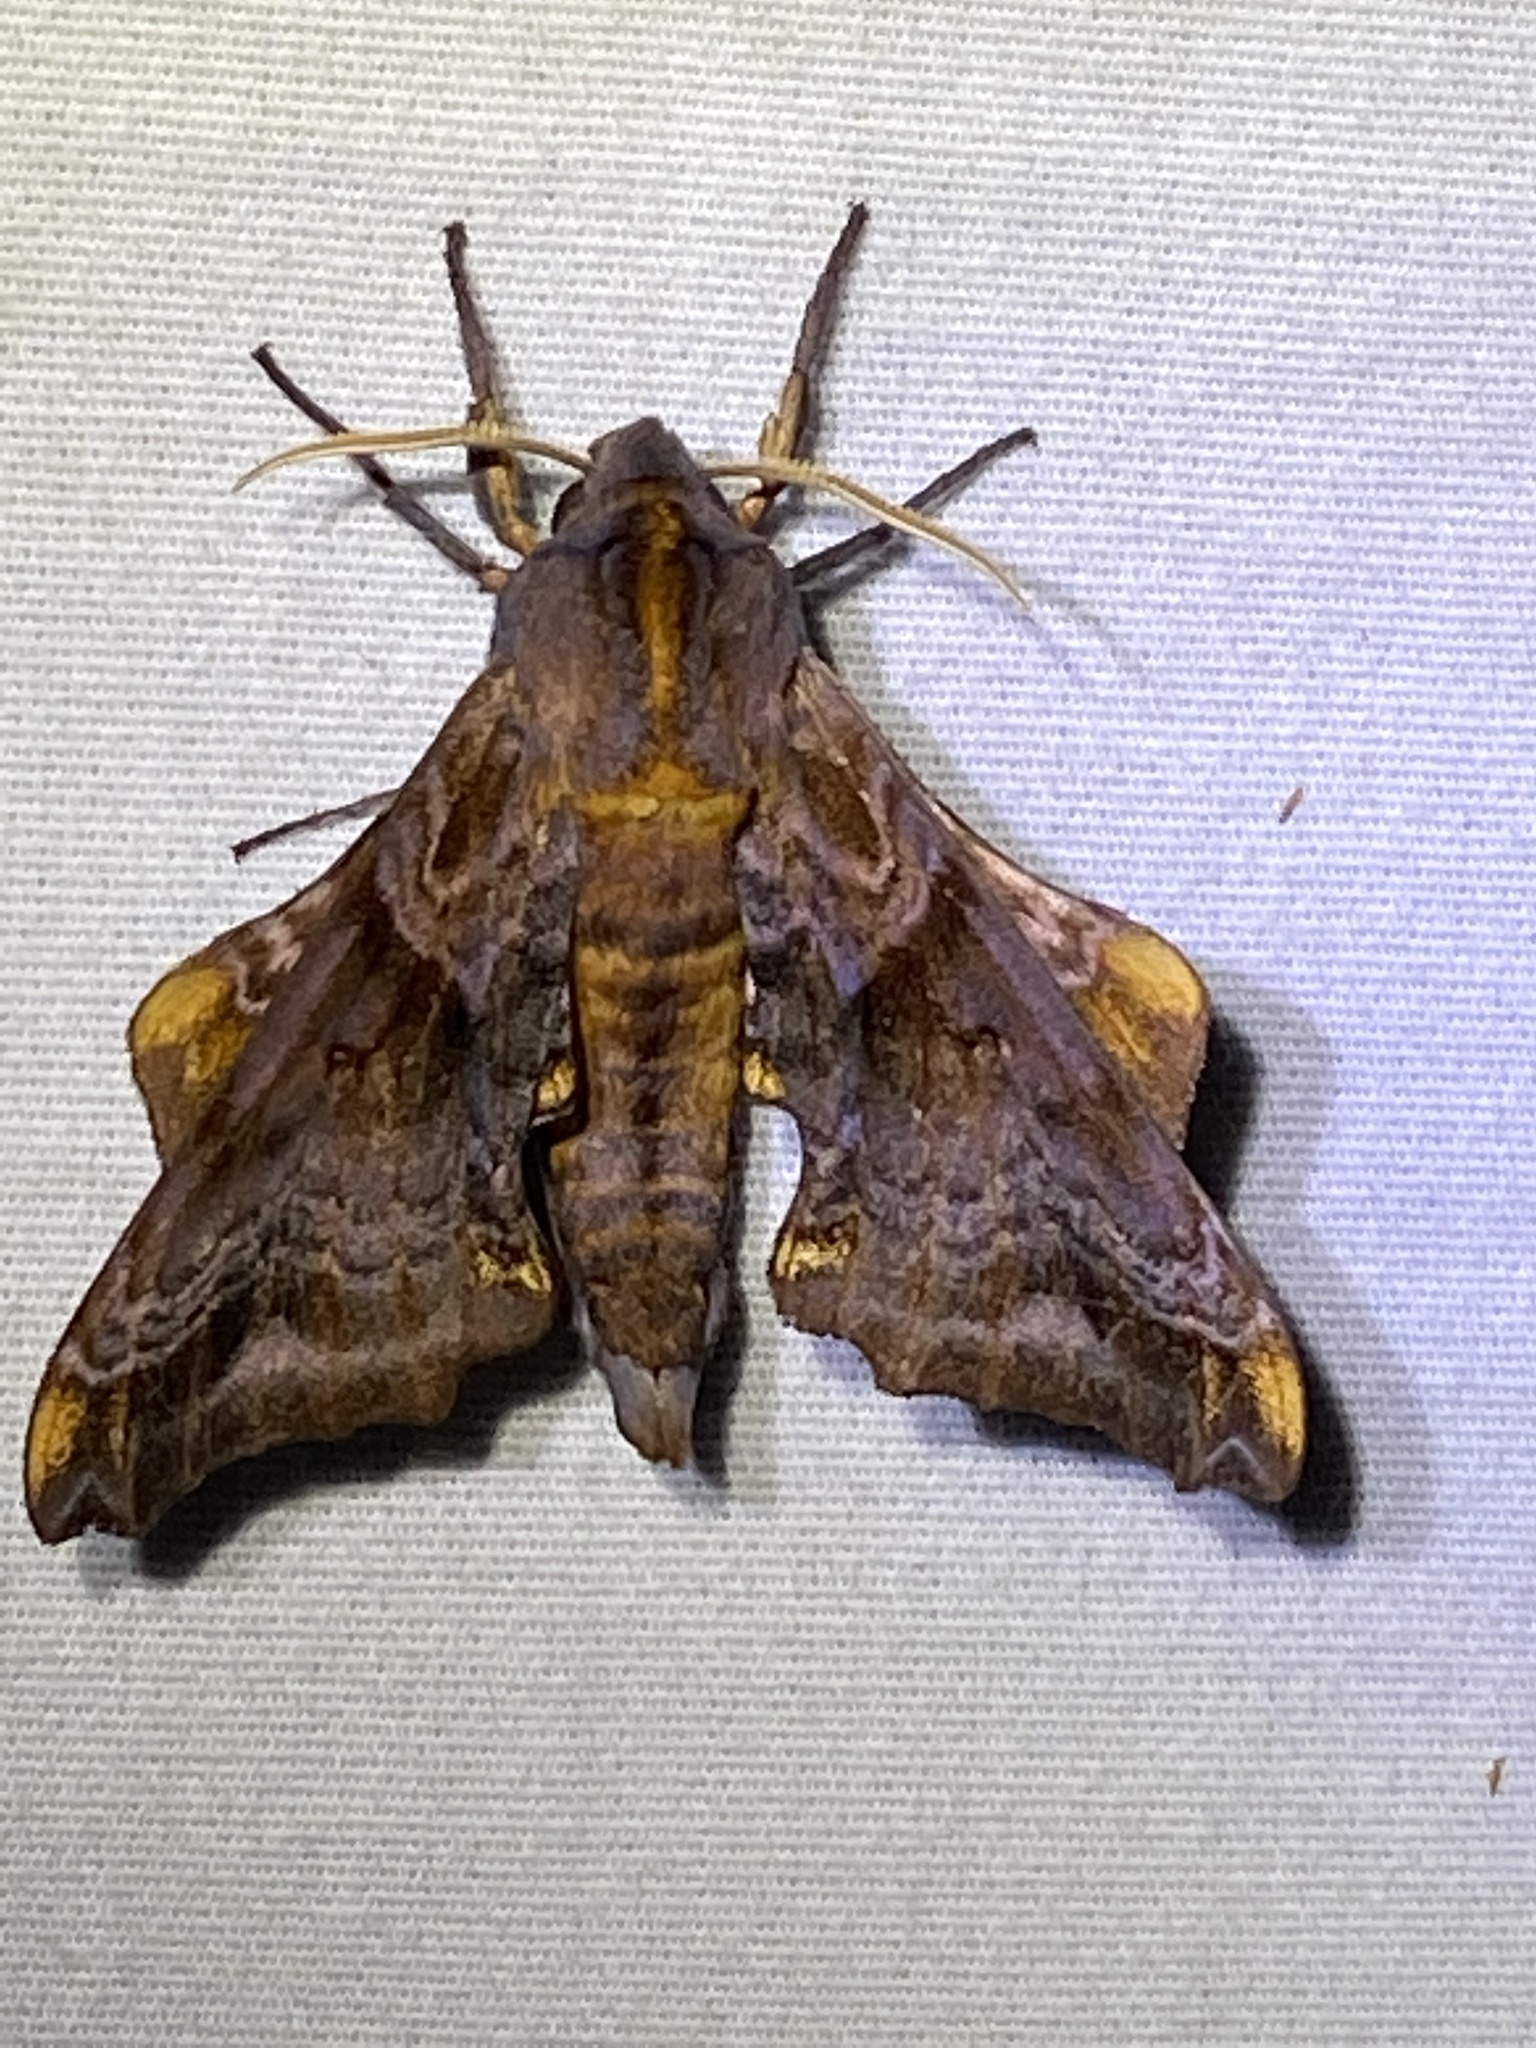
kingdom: Animalia
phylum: Arthropoda
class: Insecta
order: Lepidoptera
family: Sphingidae
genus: Paonias
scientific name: Paonias myops
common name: Small-eyed sphinx
